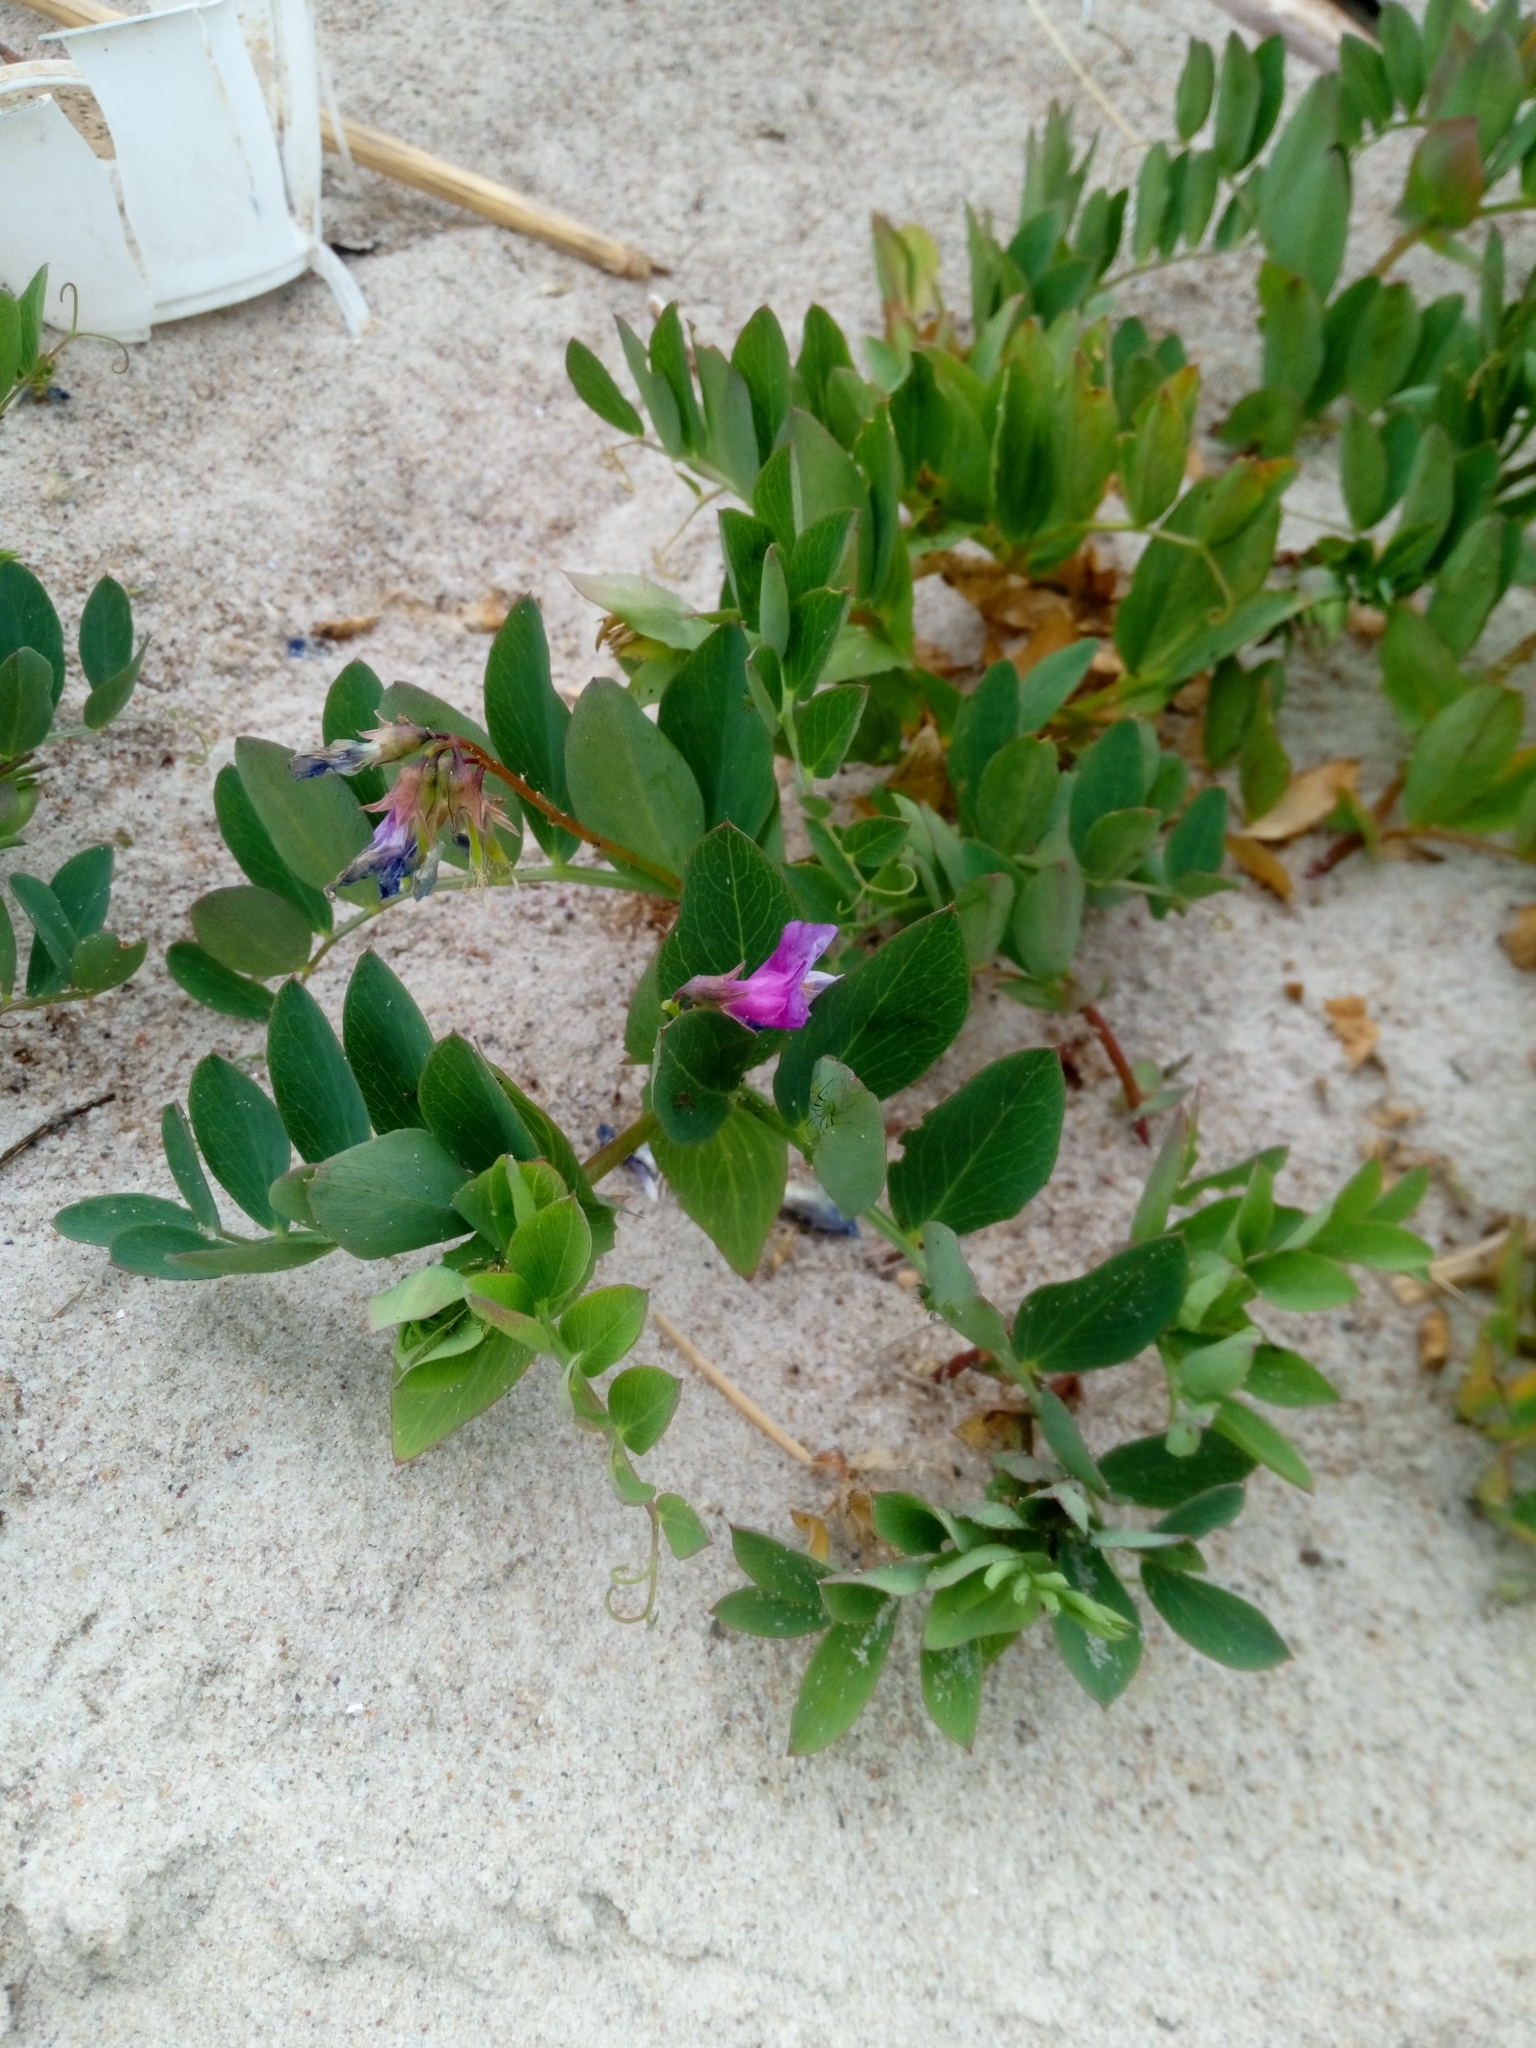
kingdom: Plantae
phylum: Tracheophyta
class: Magnoliopsida
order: Fabales
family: Fabaceae
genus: Lathyrus
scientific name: Lathyrus japonicus
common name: Sea pea
